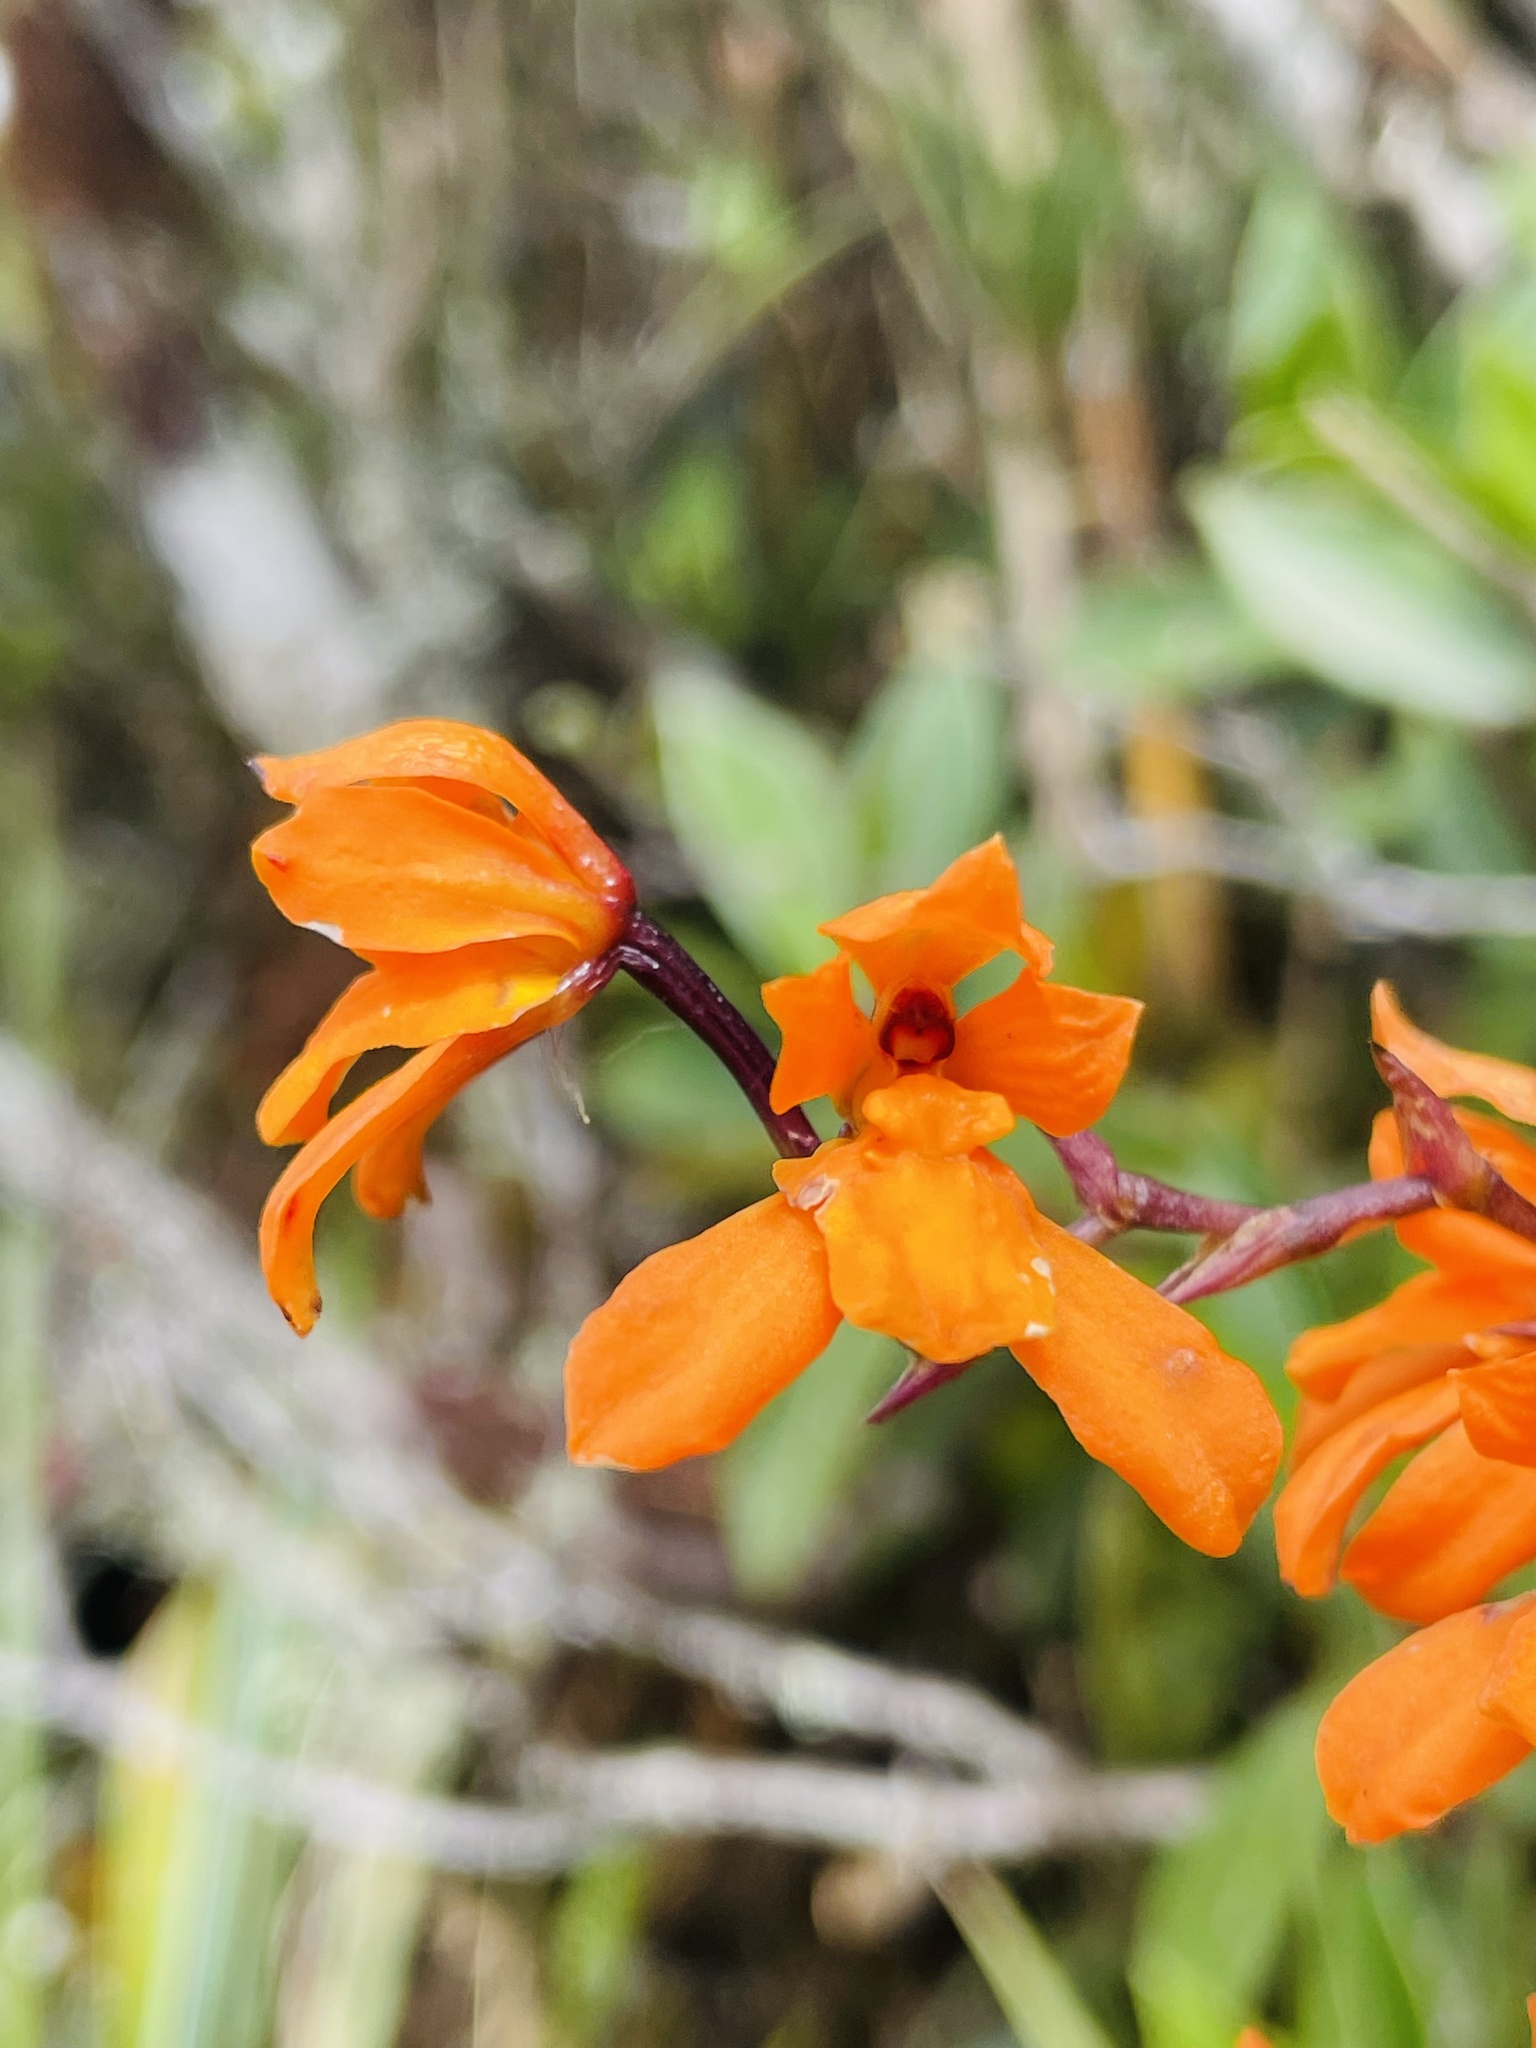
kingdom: Plantae
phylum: Tracheophyta
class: Liliopsida
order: Asparagales
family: Orchidaceae
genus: Cyrtochilum
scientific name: Cyrtochilum retusum
